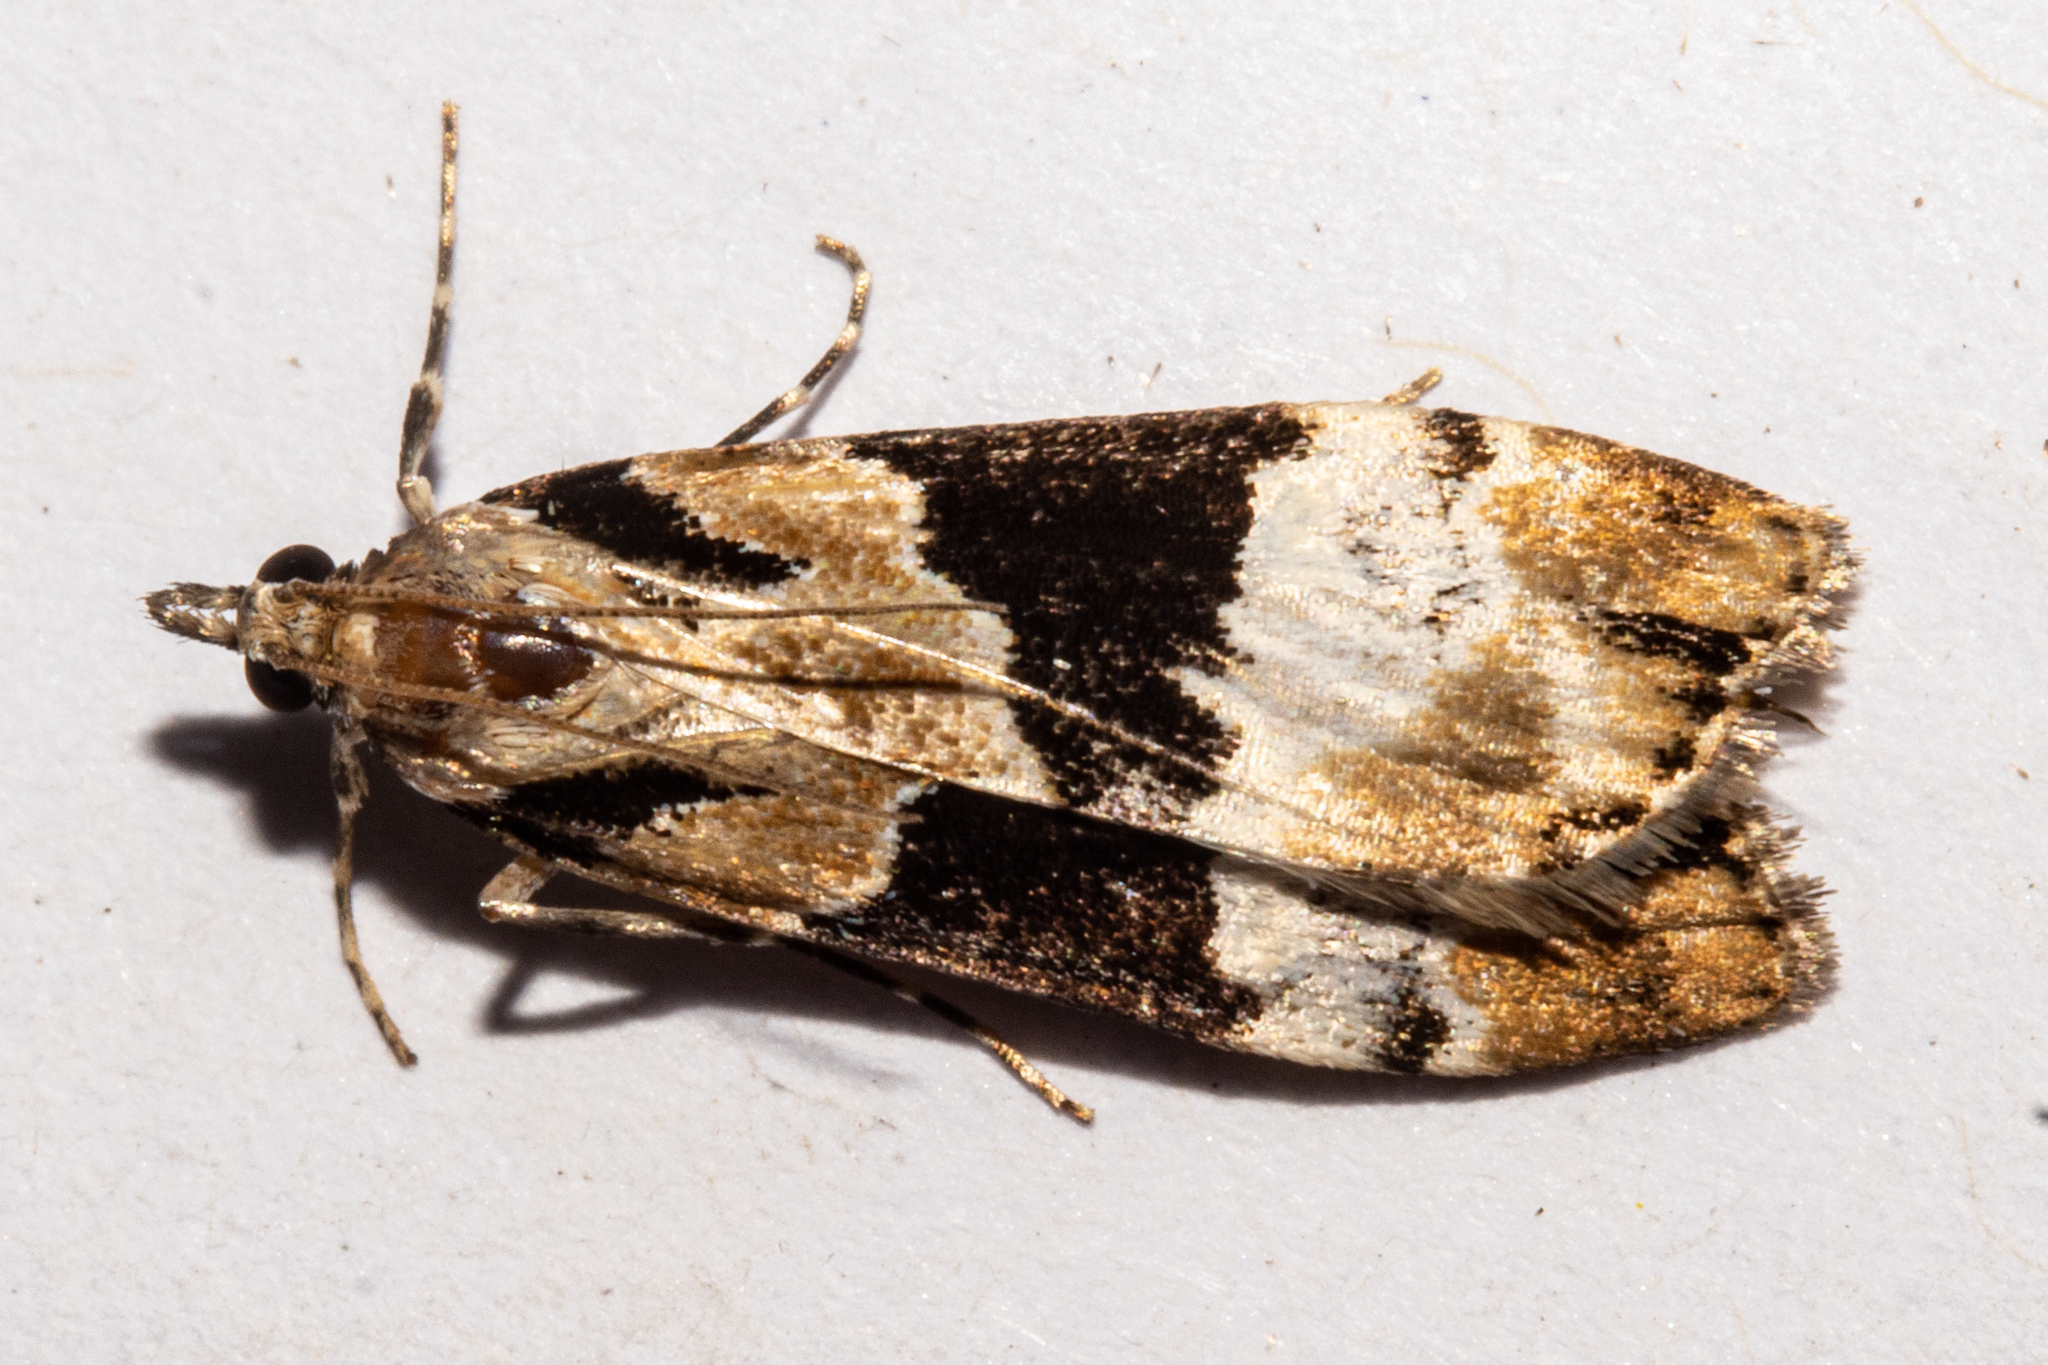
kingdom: Animalia
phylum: Arthropoda
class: Insecta
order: Lepidoptera
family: Crambidae
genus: Eudonia
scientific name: Eudonia aspidota
